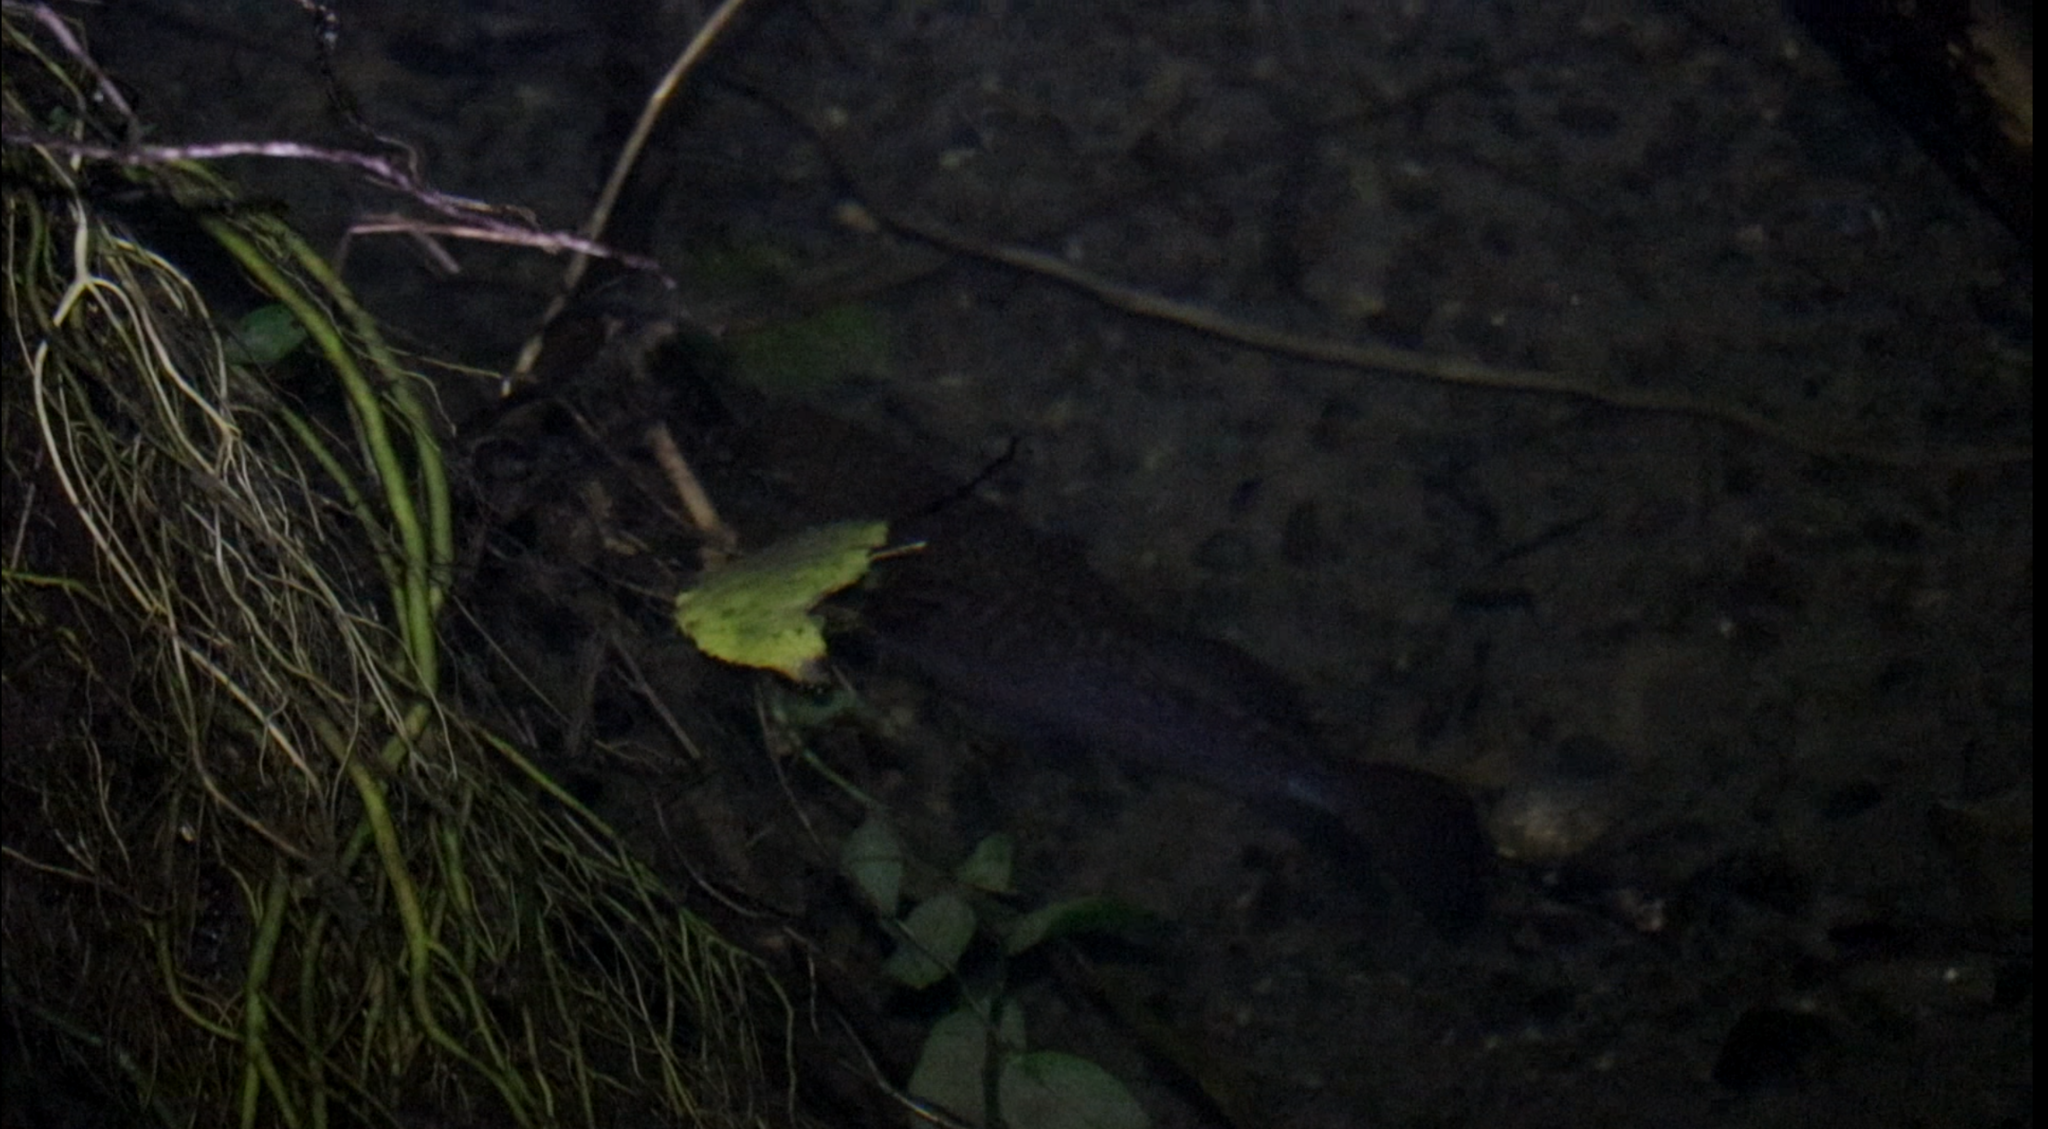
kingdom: Animalia
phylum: Chordata
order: Osmeriformes
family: Galaxiidae
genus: Galaxias
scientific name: Galaxias argenteus
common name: Giant kokopu
